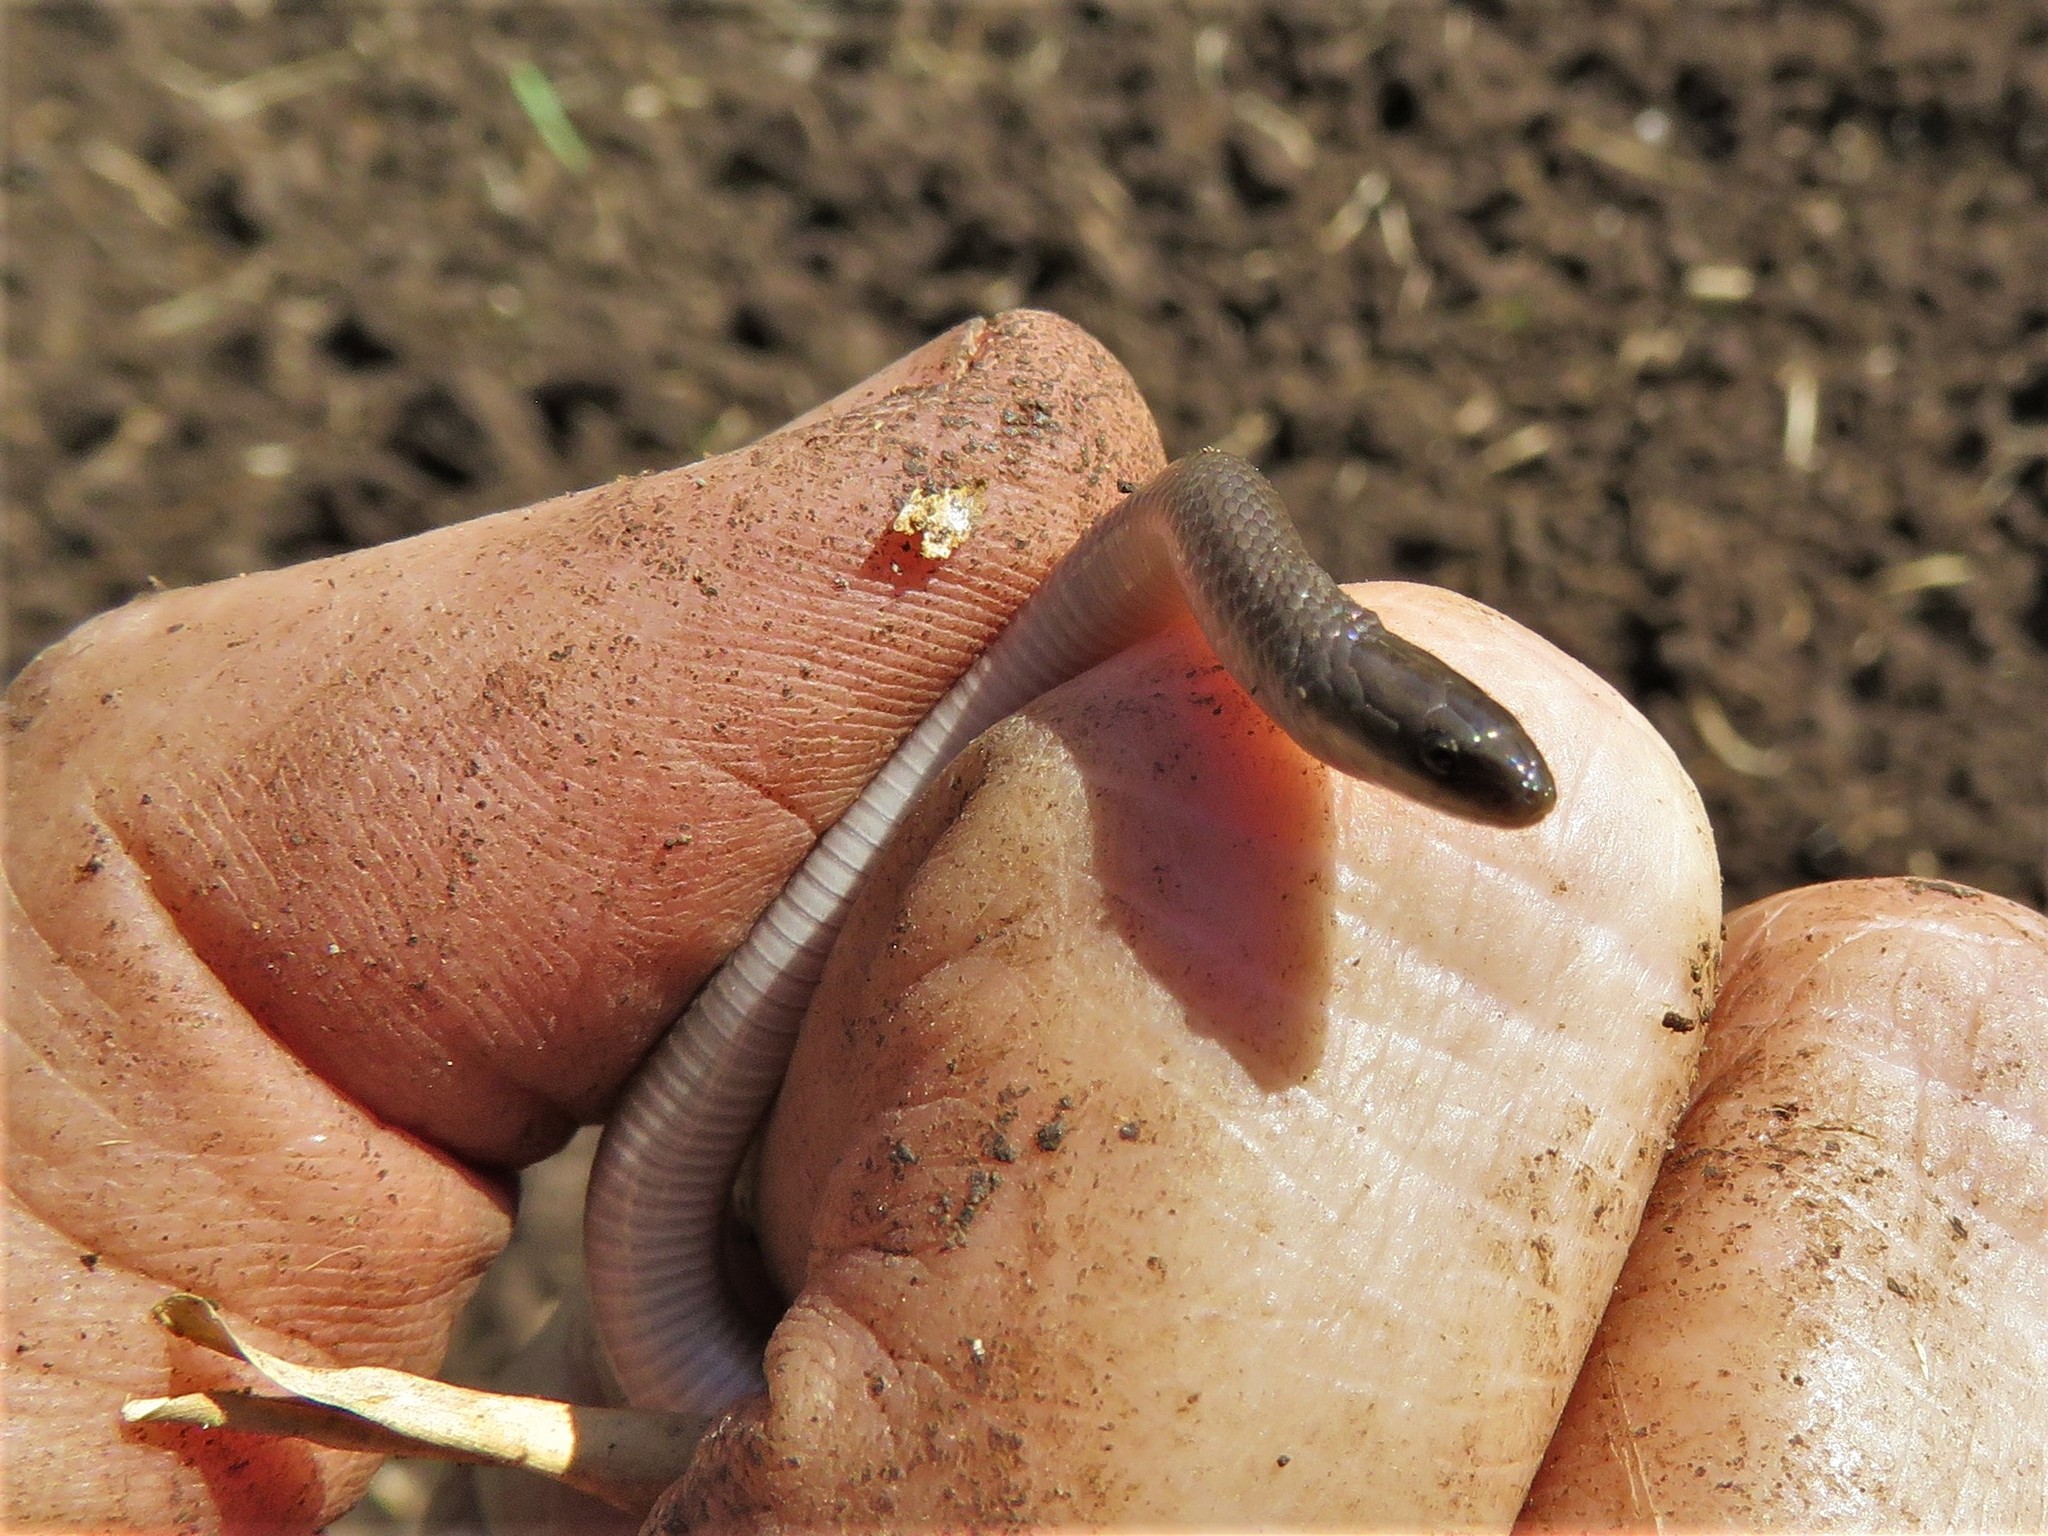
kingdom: Animalia
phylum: Chordata
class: Squamata
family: Colubridae
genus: Haldea
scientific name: Haldea striatula
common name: Rough earth snake
